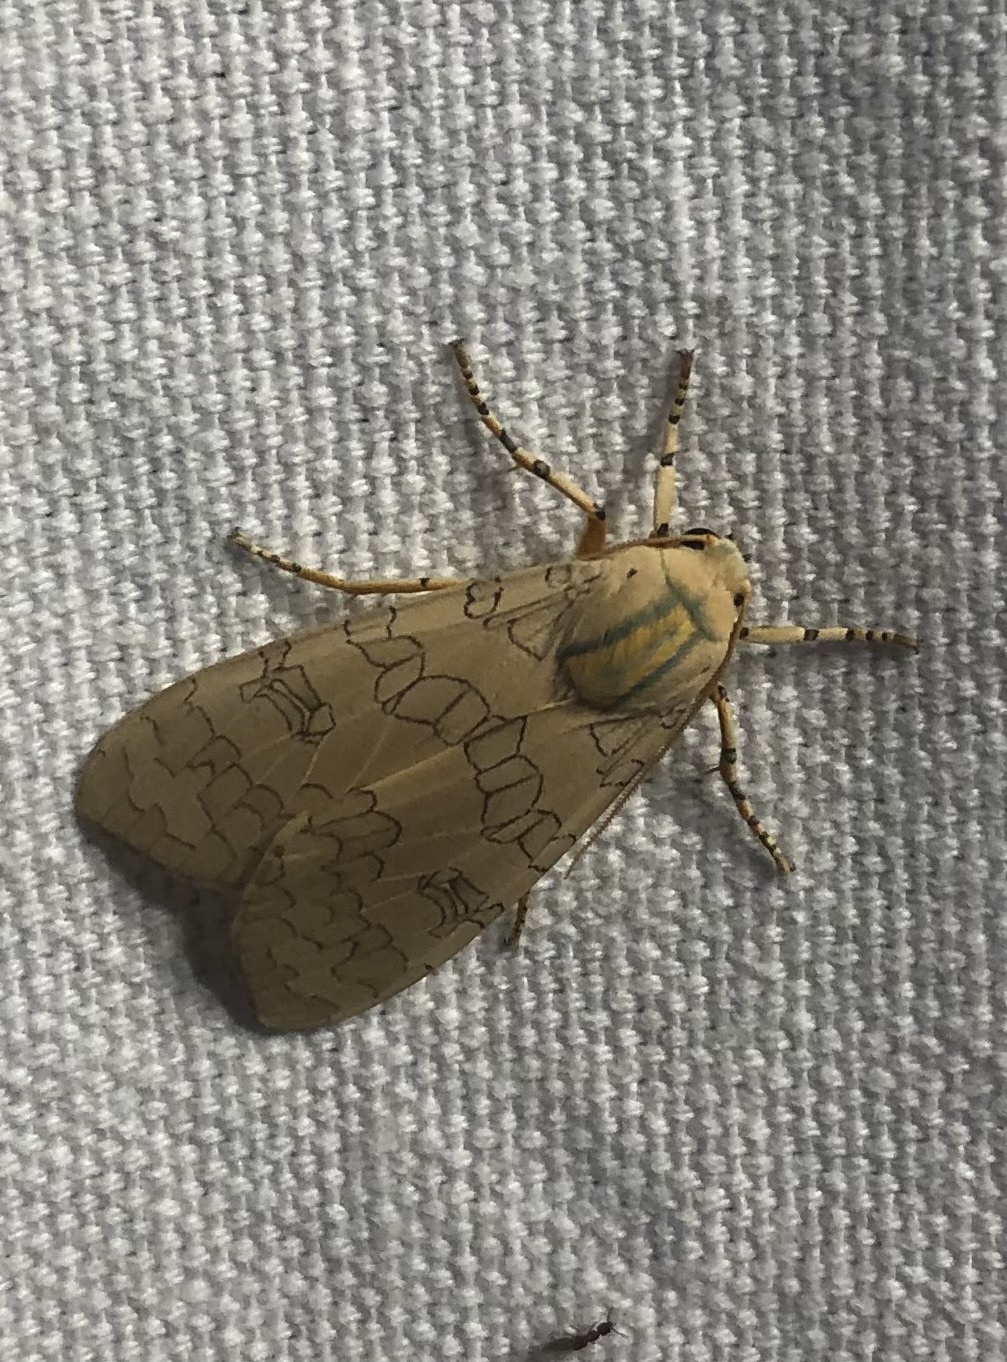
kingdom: Animalia
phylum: Arthropoda
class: Insecta
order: Lepidoptera
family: Erebidae
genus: Halysidota
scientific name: Halysidota
